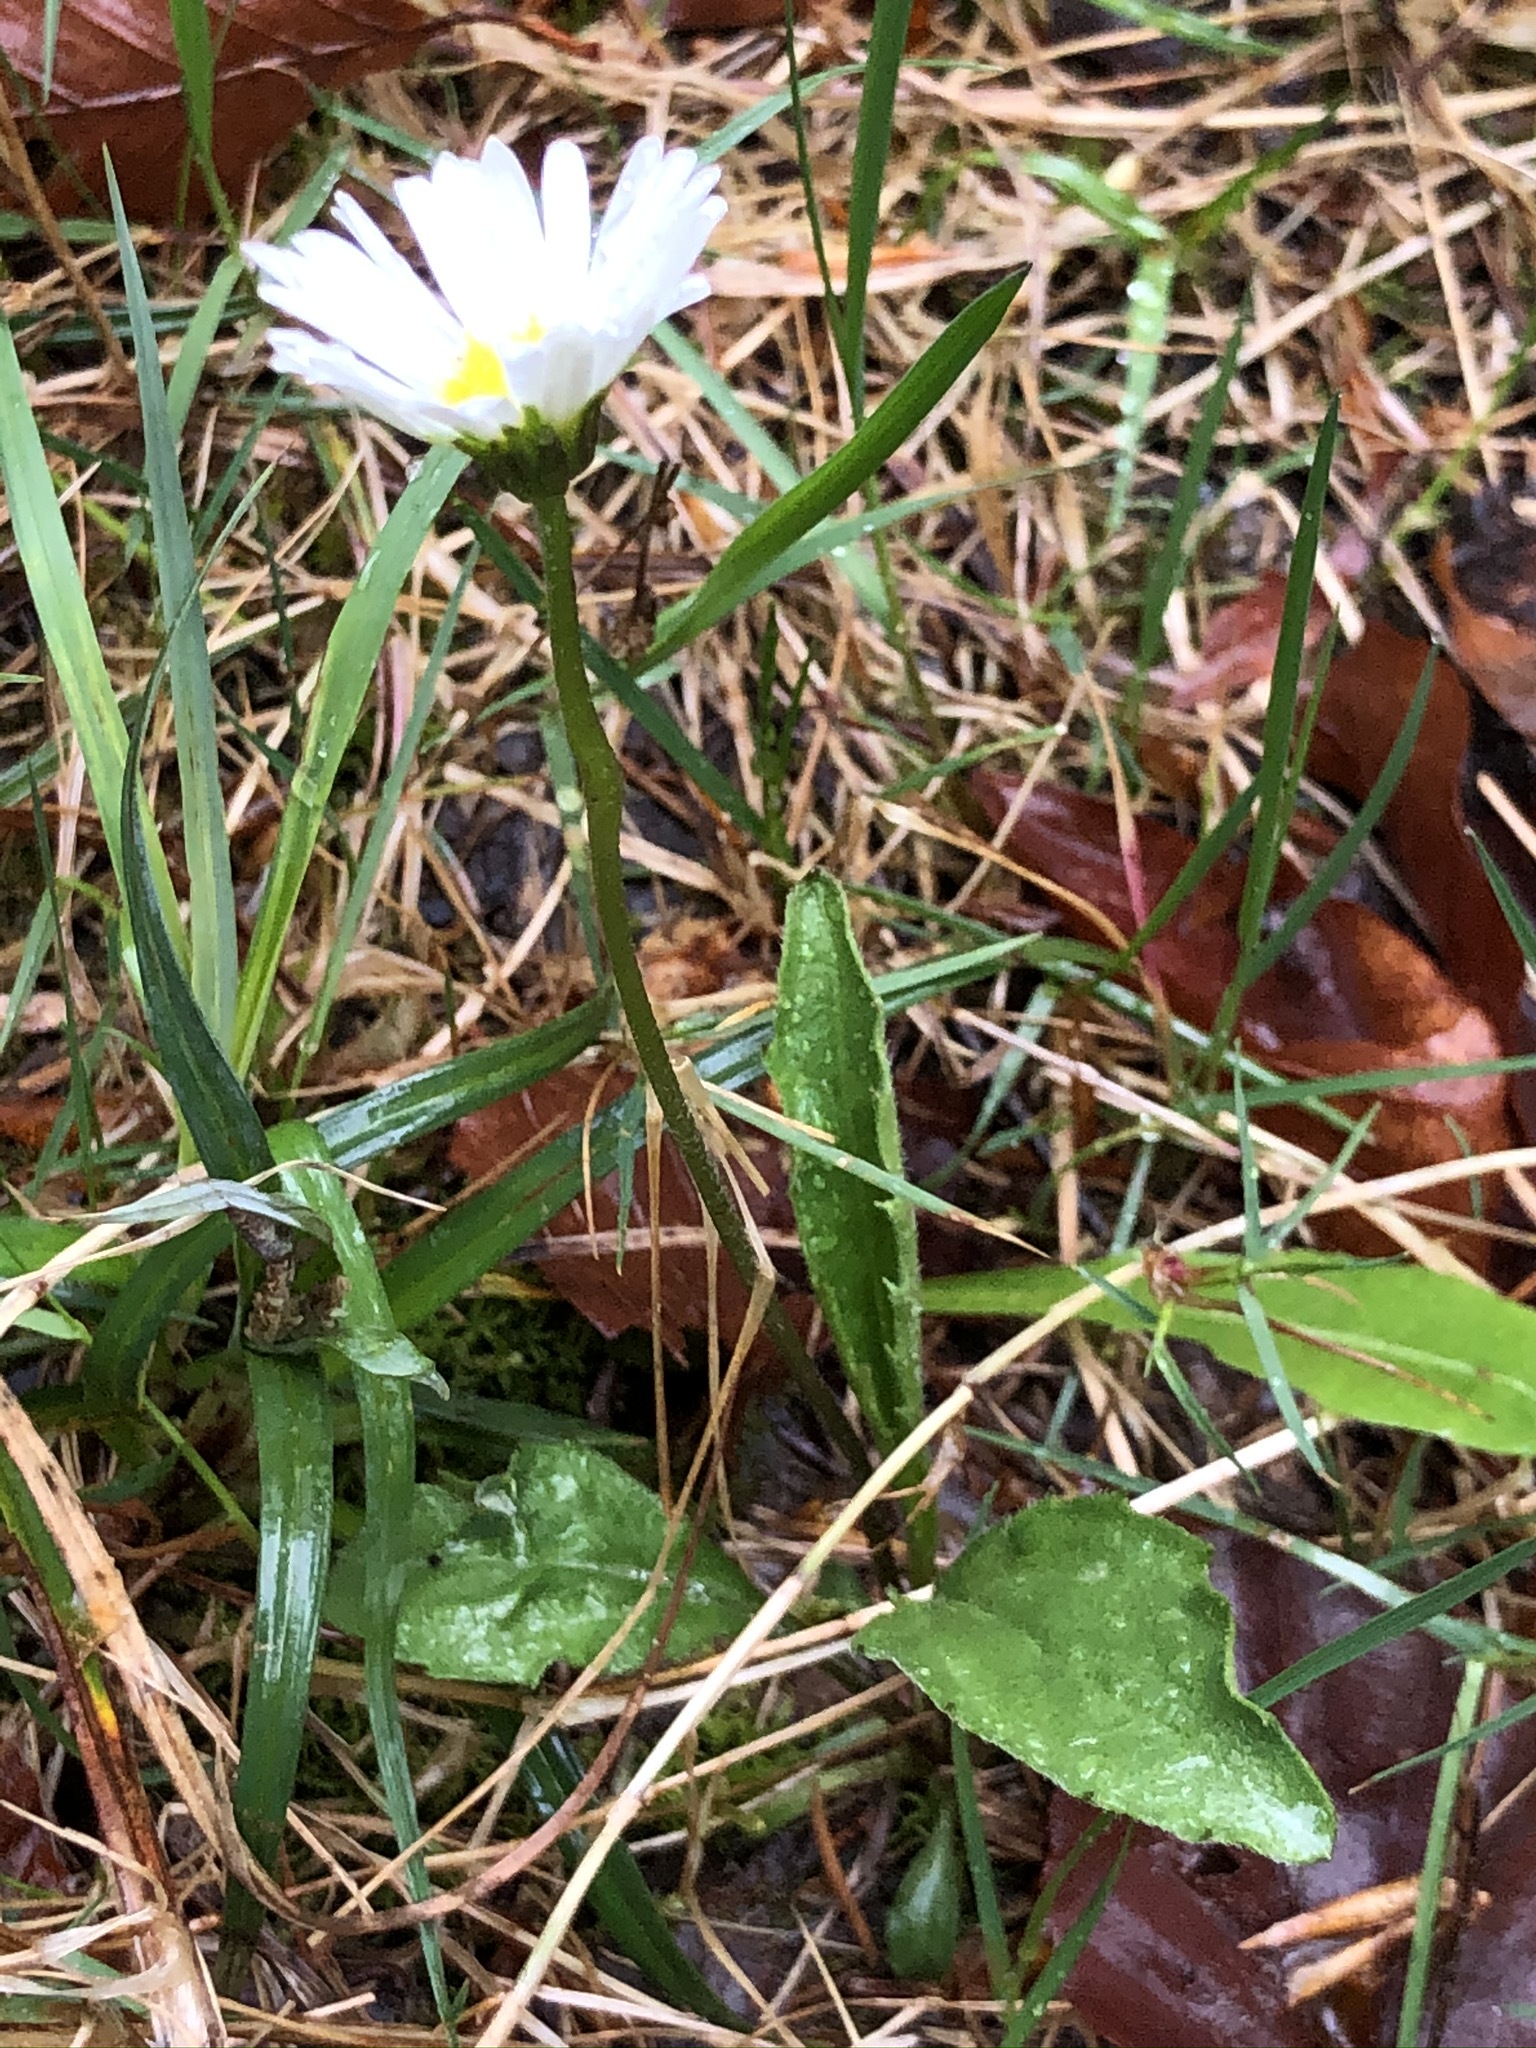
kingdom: Plantae
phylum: Tracheophyta
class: Magnoliopsida
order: Asterales
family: Asteraceae
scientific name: Asteraceae
